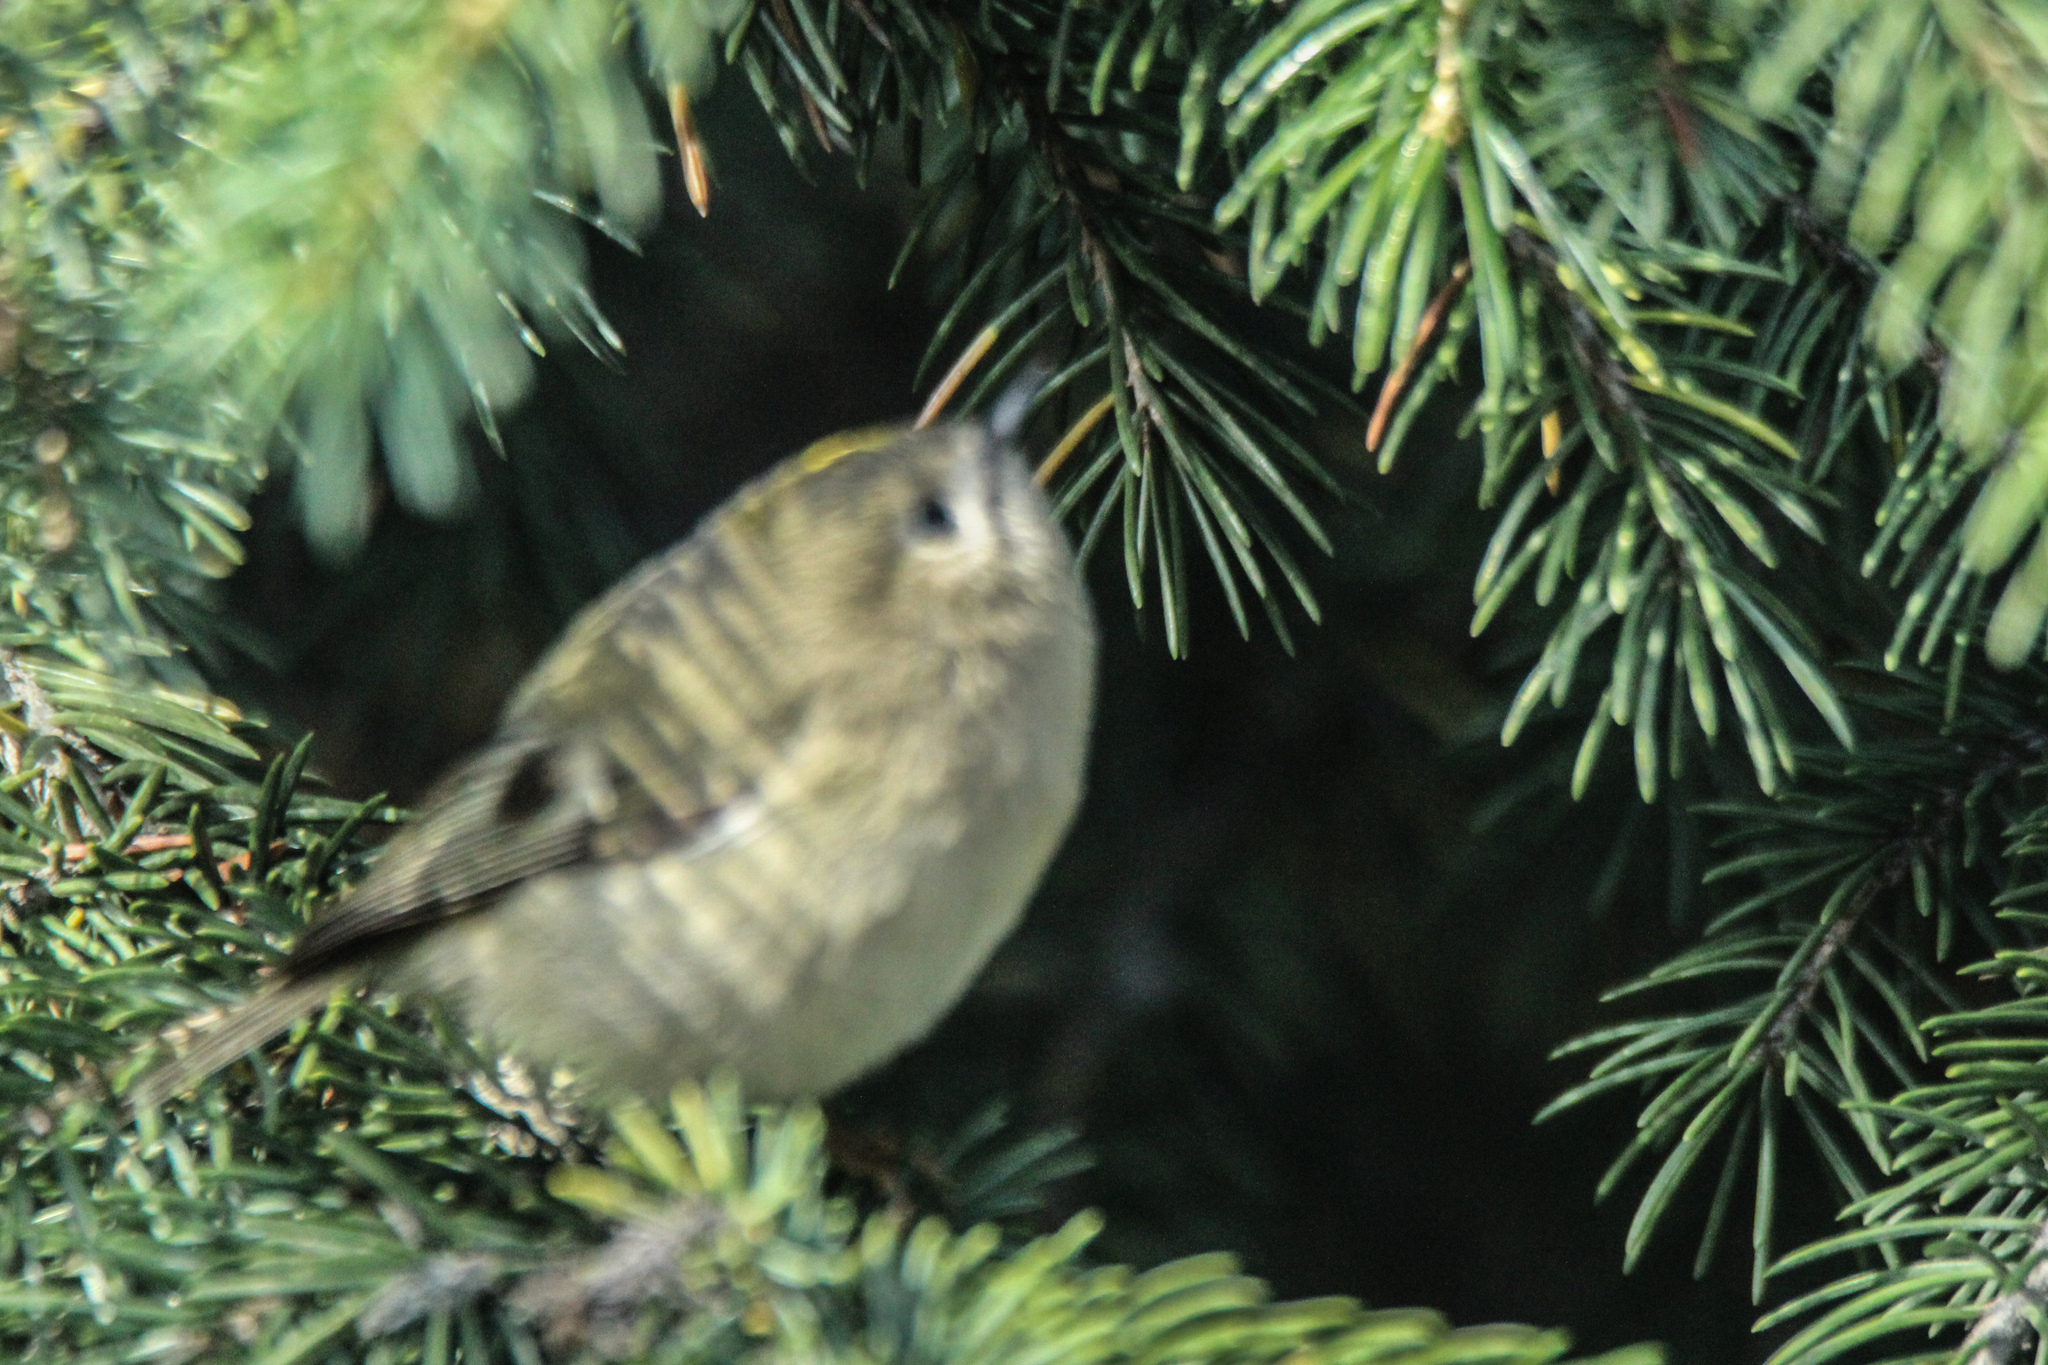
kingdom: Animalia
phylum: Chordata
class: Aves
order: Passeriformes
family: Regulidae
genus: Regulus
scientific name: Regulus regulus
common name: Goldcrest
